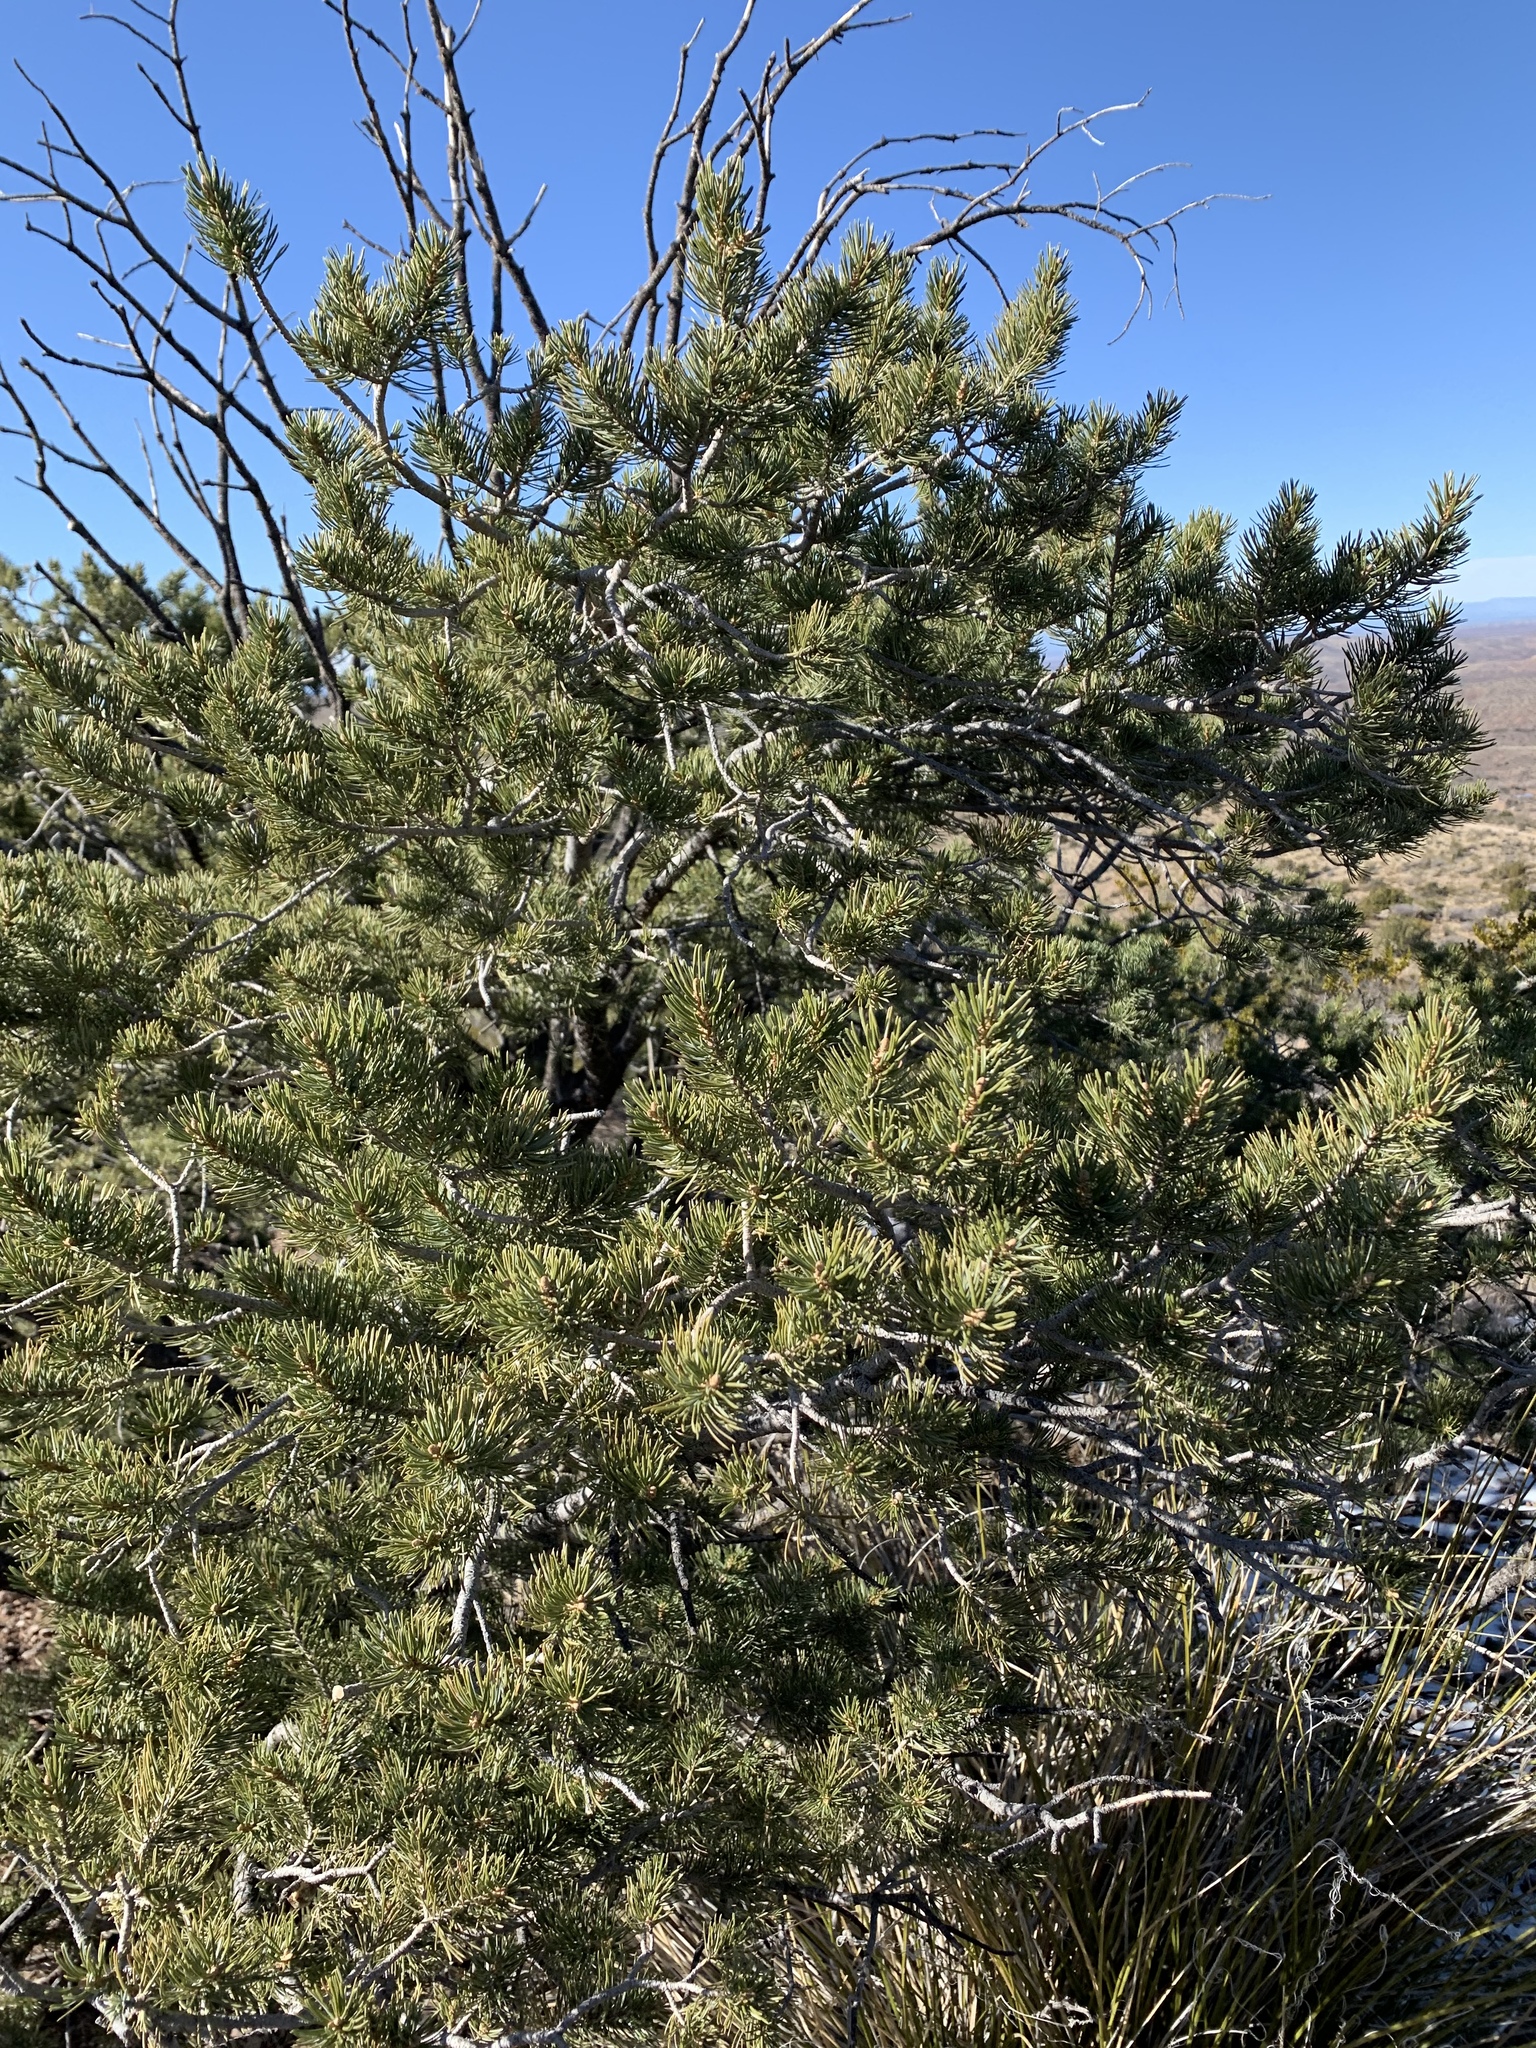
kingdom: Plantae
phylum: Tracheophyta
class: Pinopsida
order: Pinales
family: Pinaceae
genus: Pinus
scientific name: Pinus edulis
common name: Colorado pinyon
